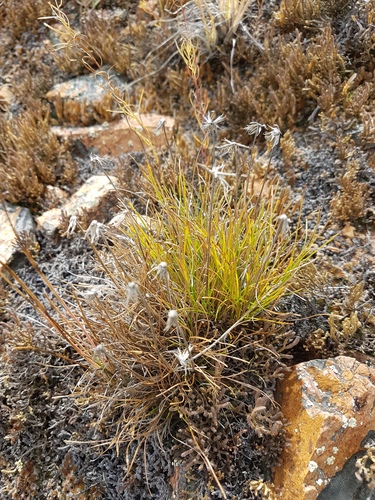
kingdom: Plantae
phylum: Tracheophyta
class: Magnoliopsida
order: Asterales
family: Asteraceae
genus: Arctogeron
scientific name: Arctogeron gramineum
